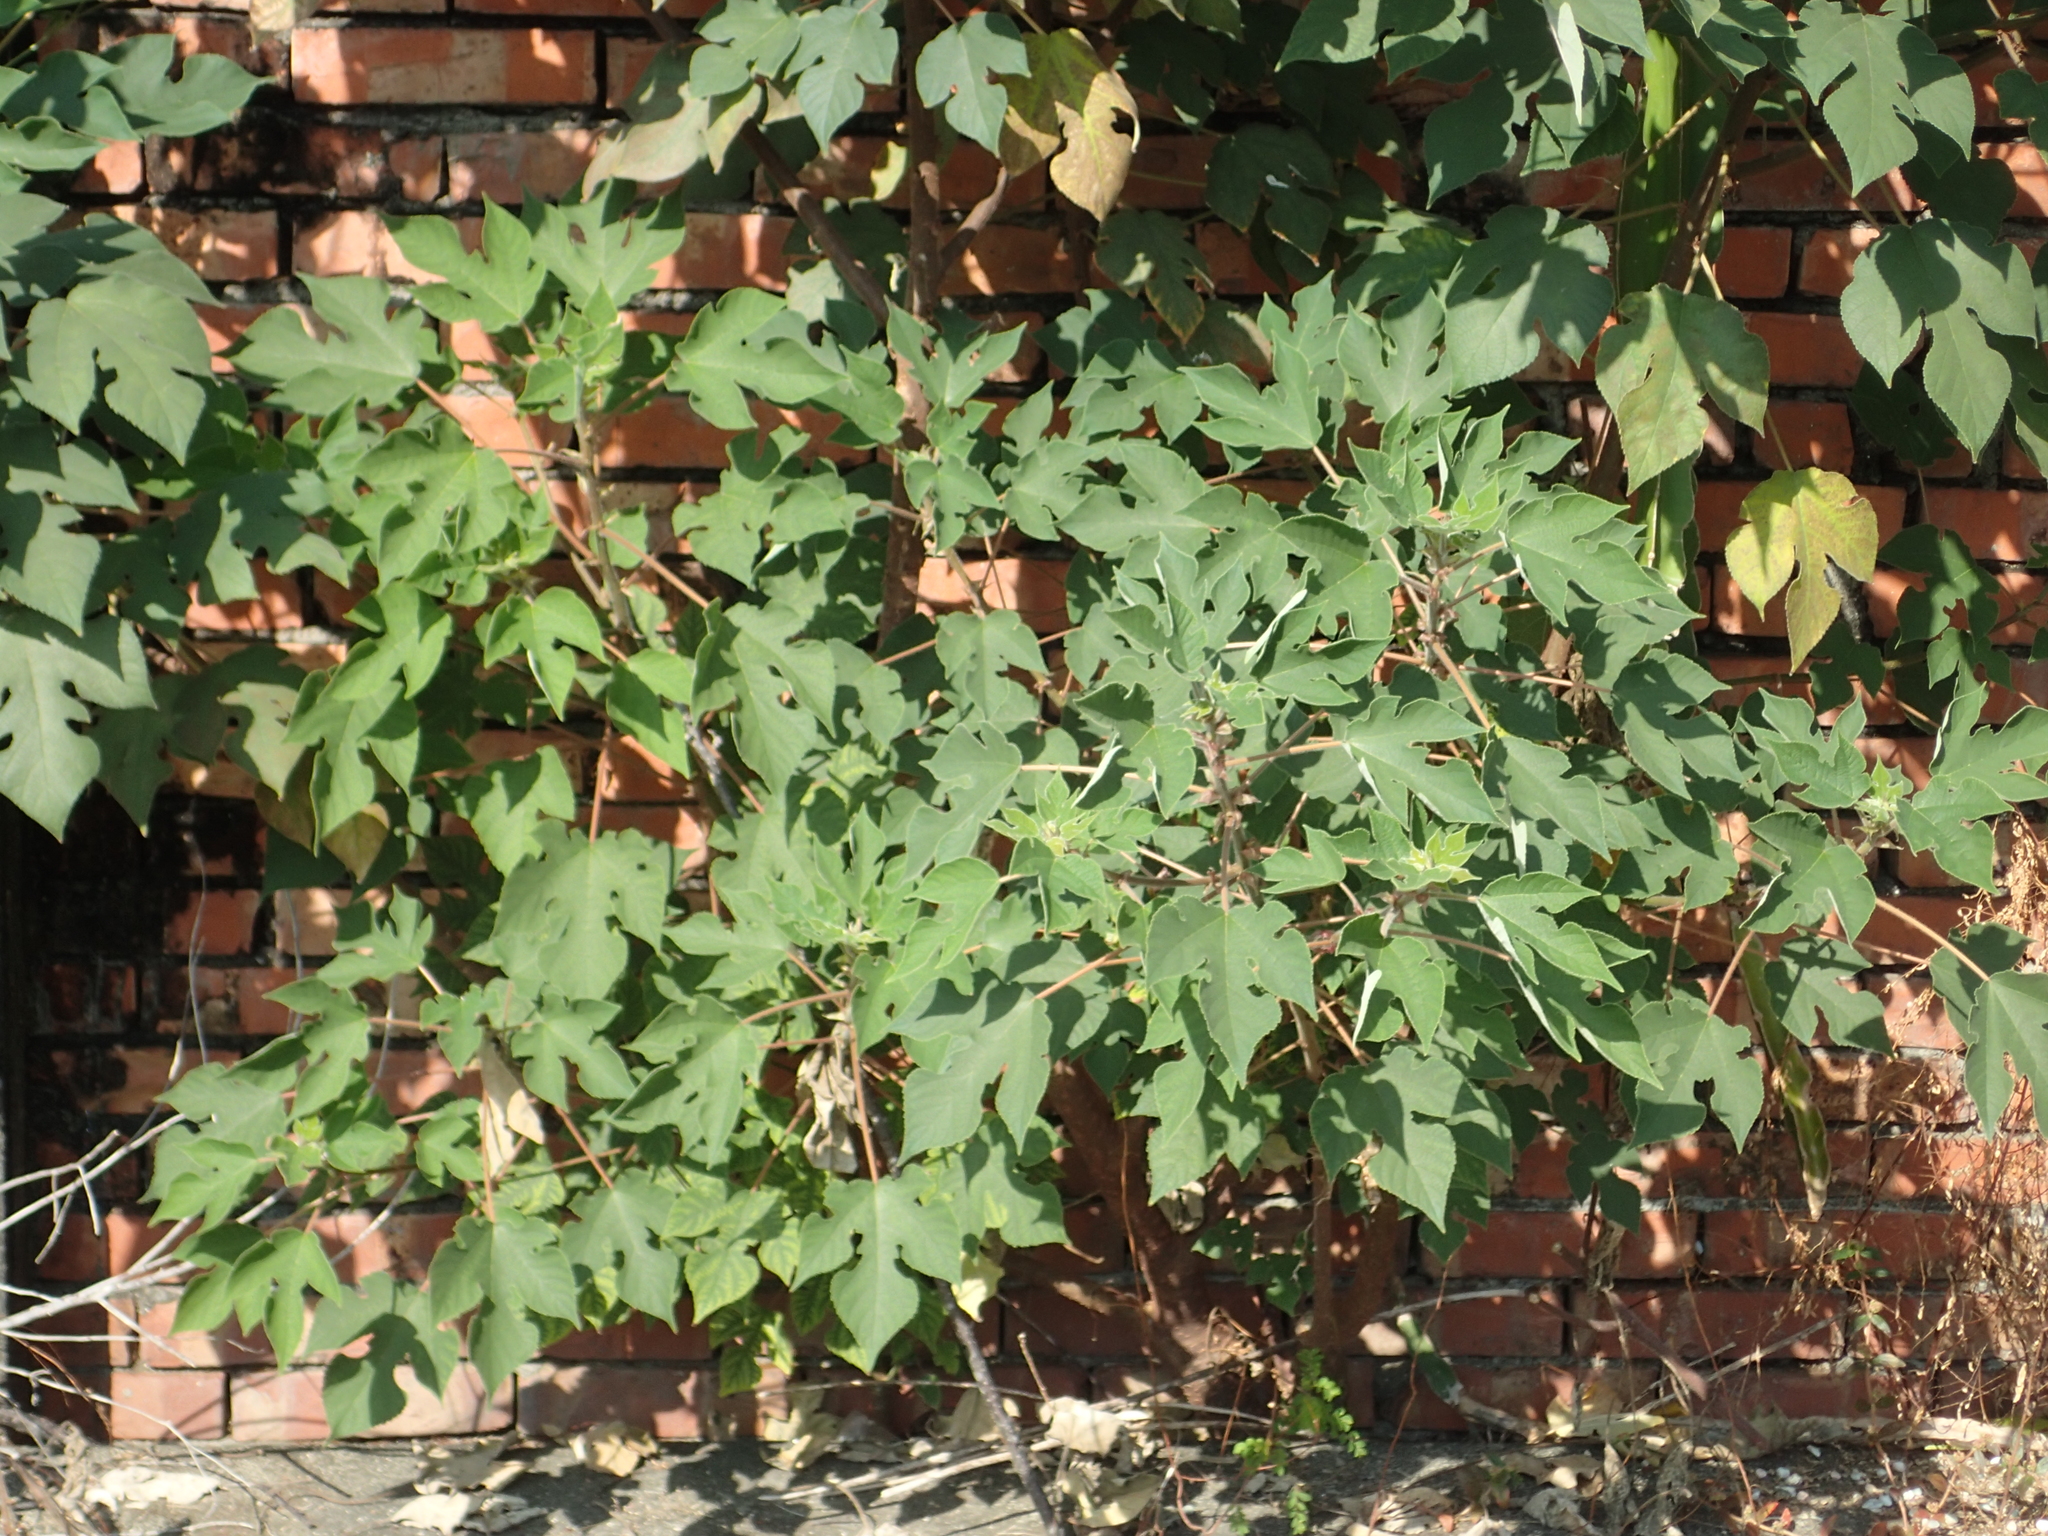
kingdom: Plantae
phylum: Tracheophyta
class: Magnoliopsida
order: Rosales
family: Moraceae
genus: Broussonetia
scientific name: Broussonetia papyrifera
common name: Paper mulberry
